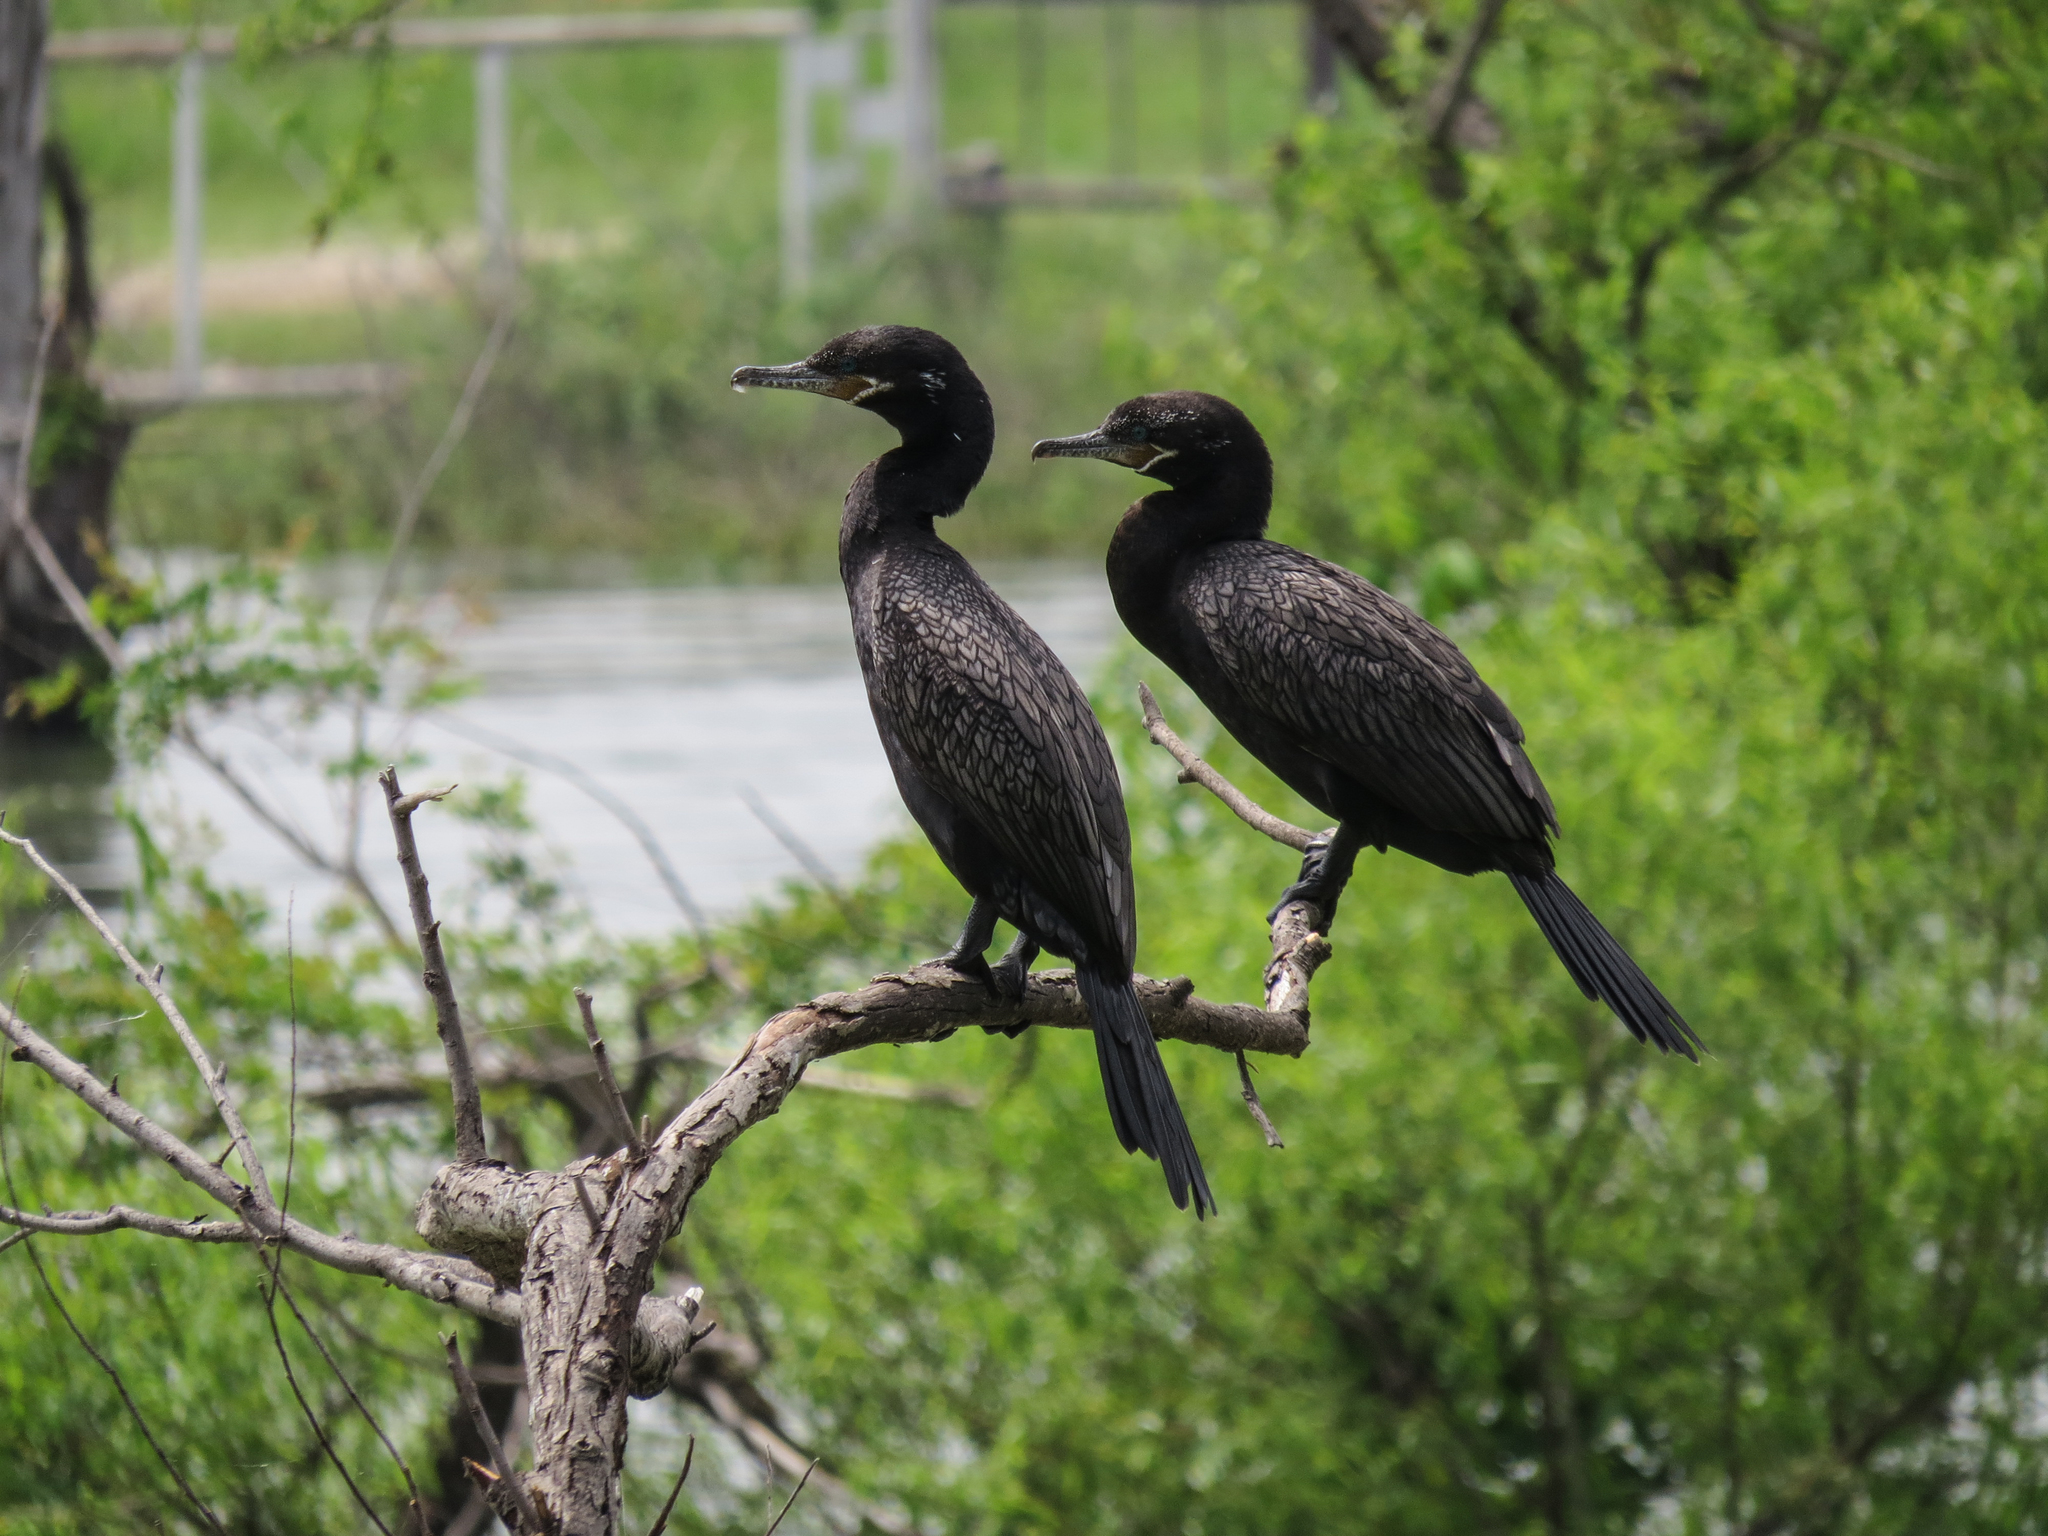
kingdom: Animalia
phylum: Chordata
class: Aves
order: Suliformes
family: Phalacrocoracidae
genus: Phalacrocorax
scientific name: Phalacrocorax brasilianus
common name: Neotropic cormorant
